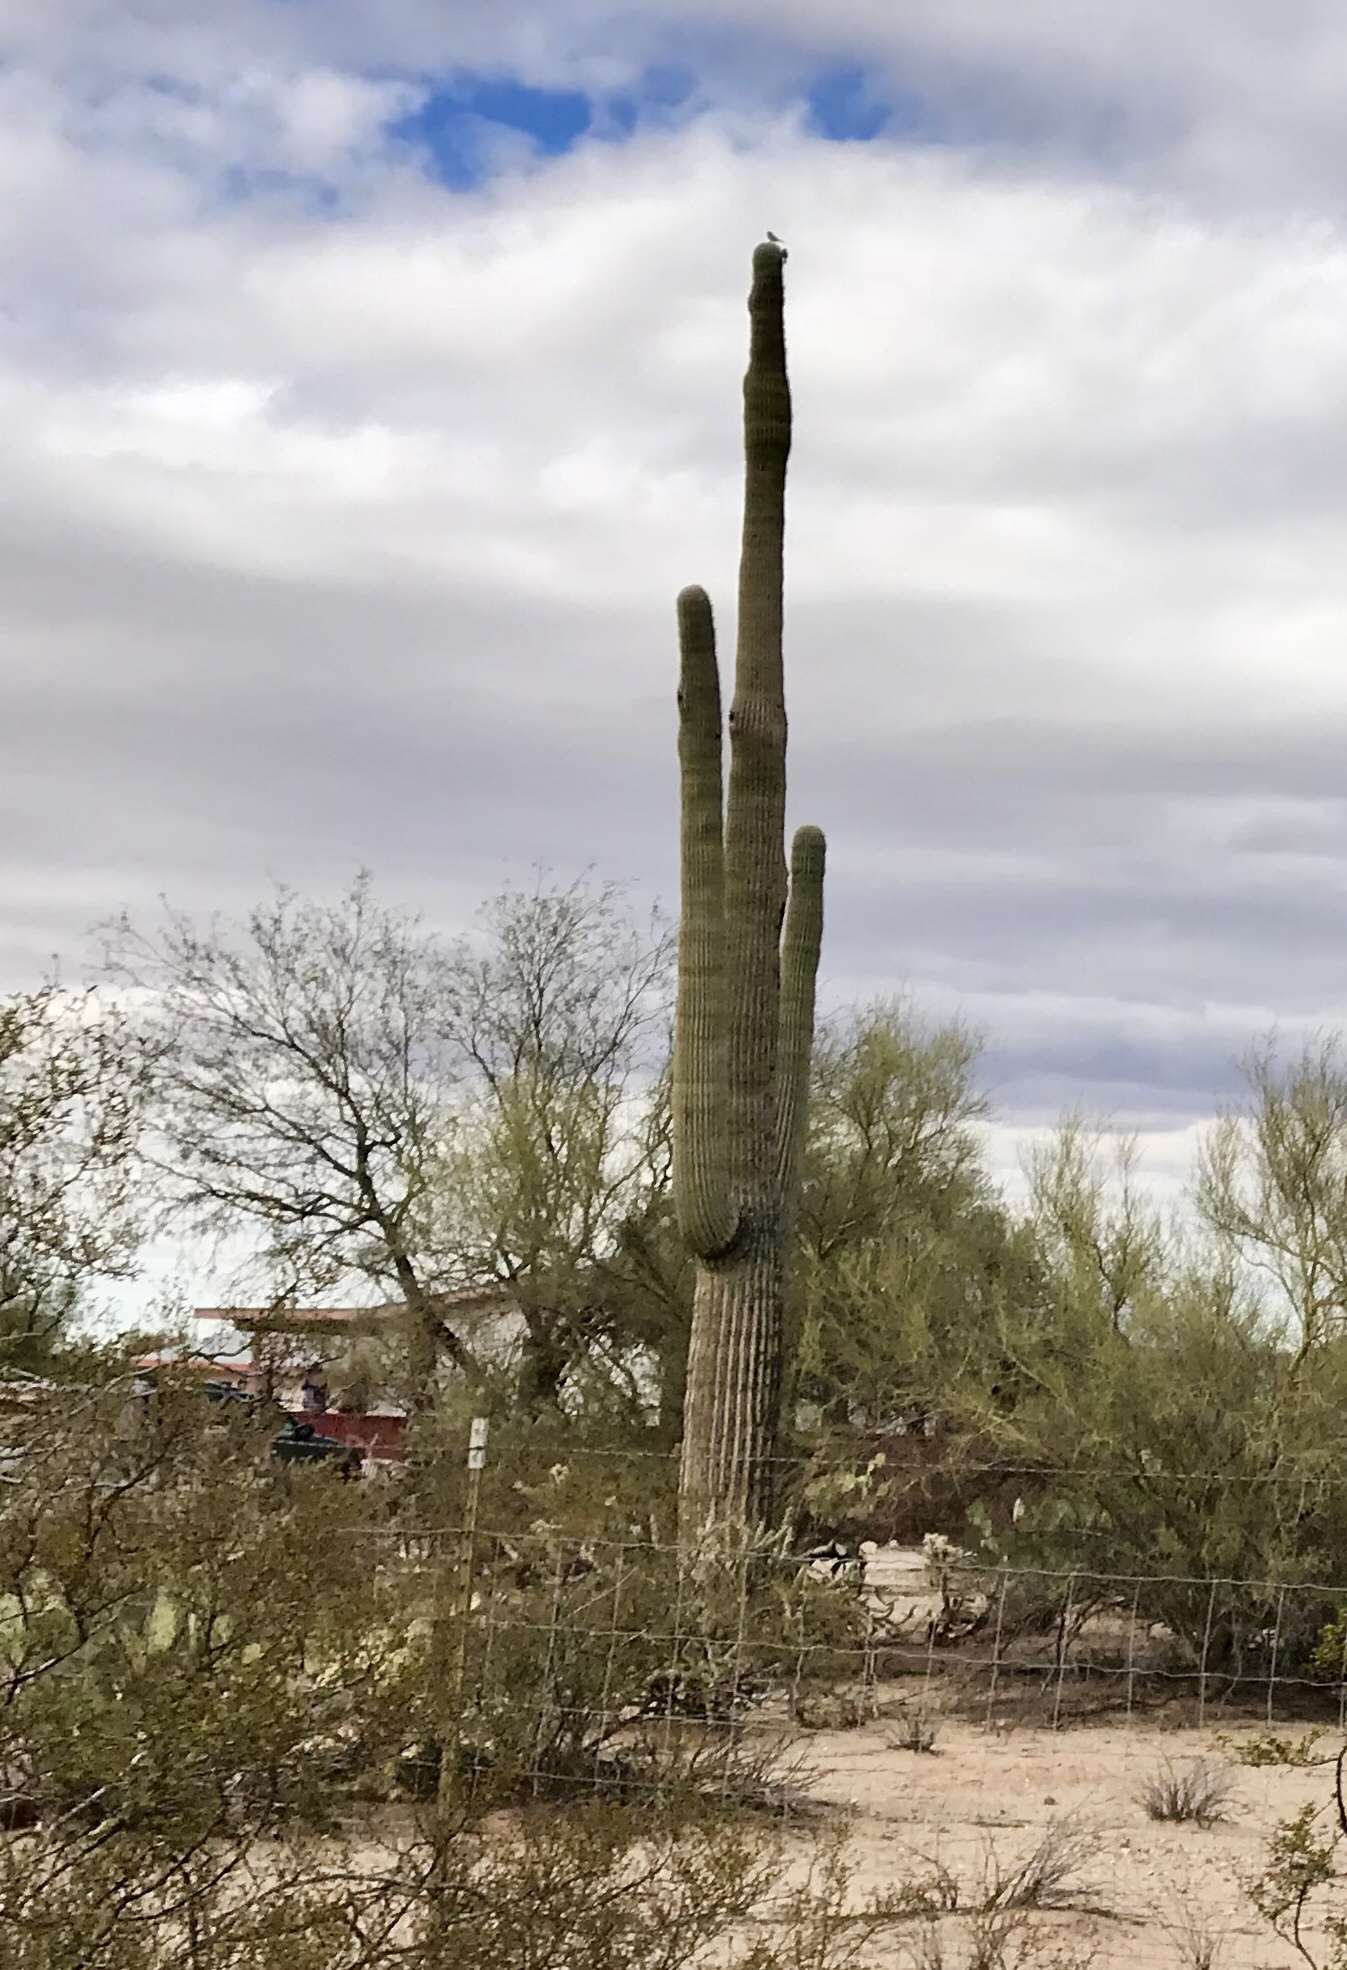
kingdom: Plantae
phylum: Tracheophyta
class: Magnoliopsida
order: Caryophyllales
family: Cactaceae
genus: Carnegiea
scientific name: Carnegiea gigantea
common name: Saguaro
